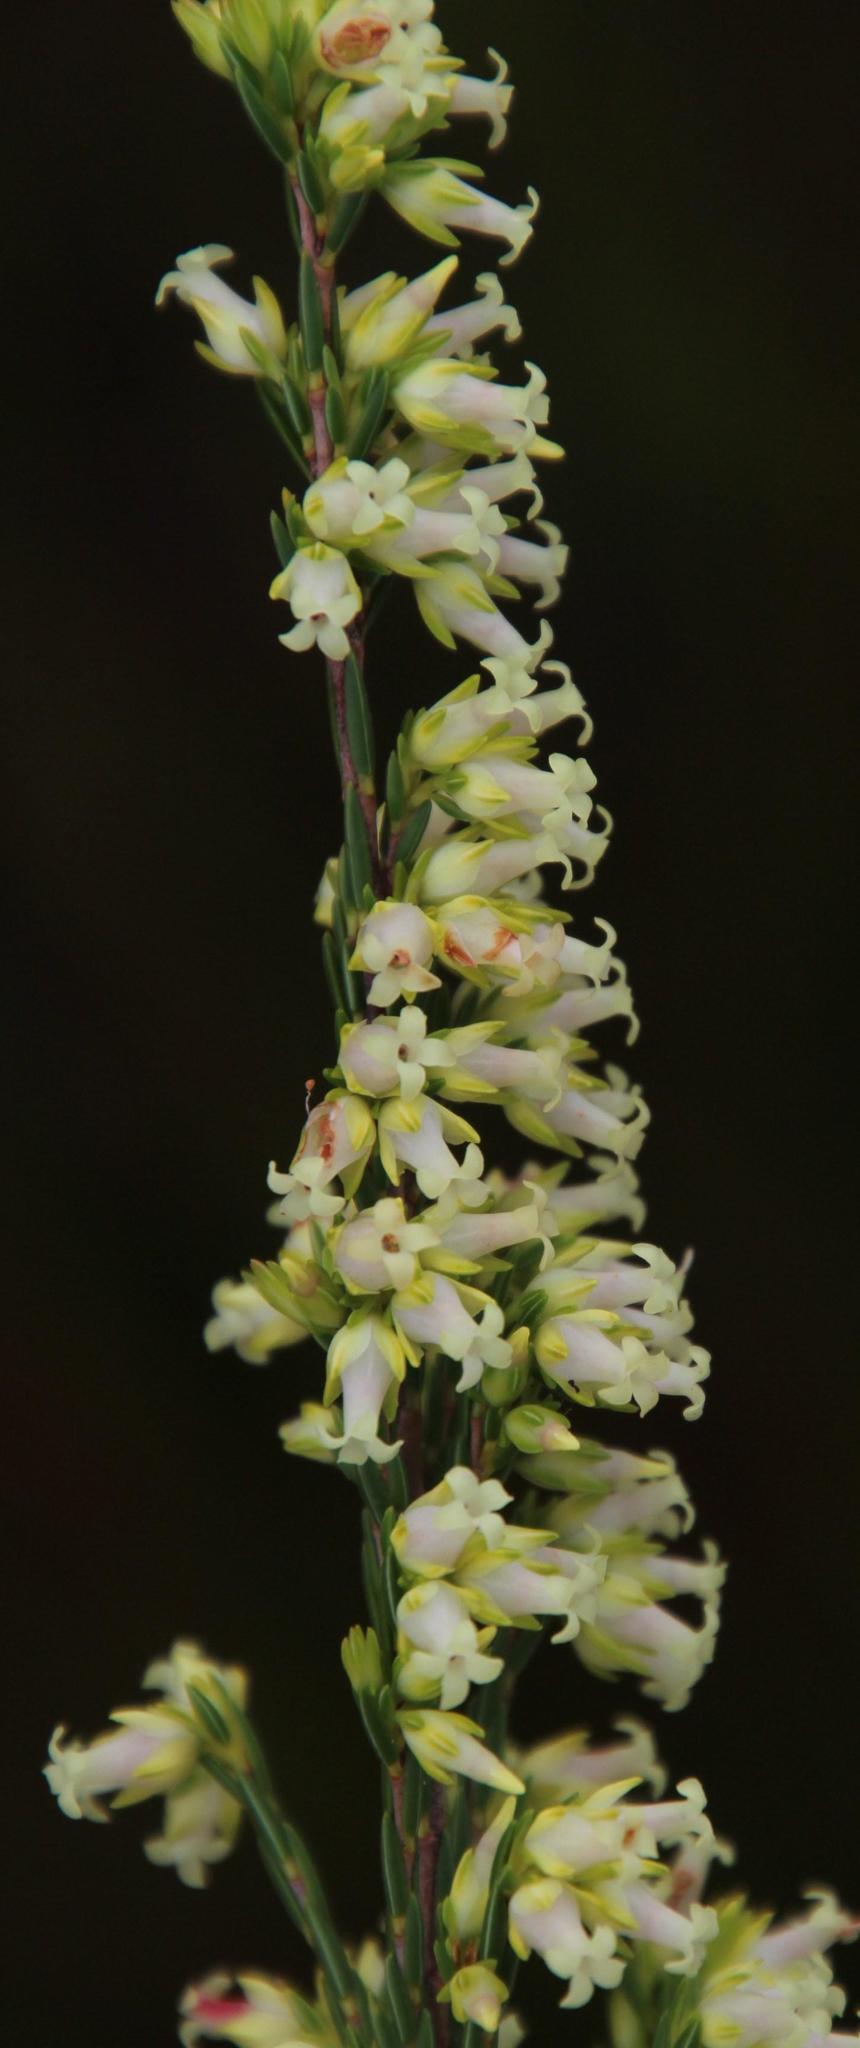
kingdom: Plantae
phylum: Tracheophyta
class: Magnoliopsida
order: Ericales
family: Ericaceae
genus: Erica
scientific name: Erica lutea
